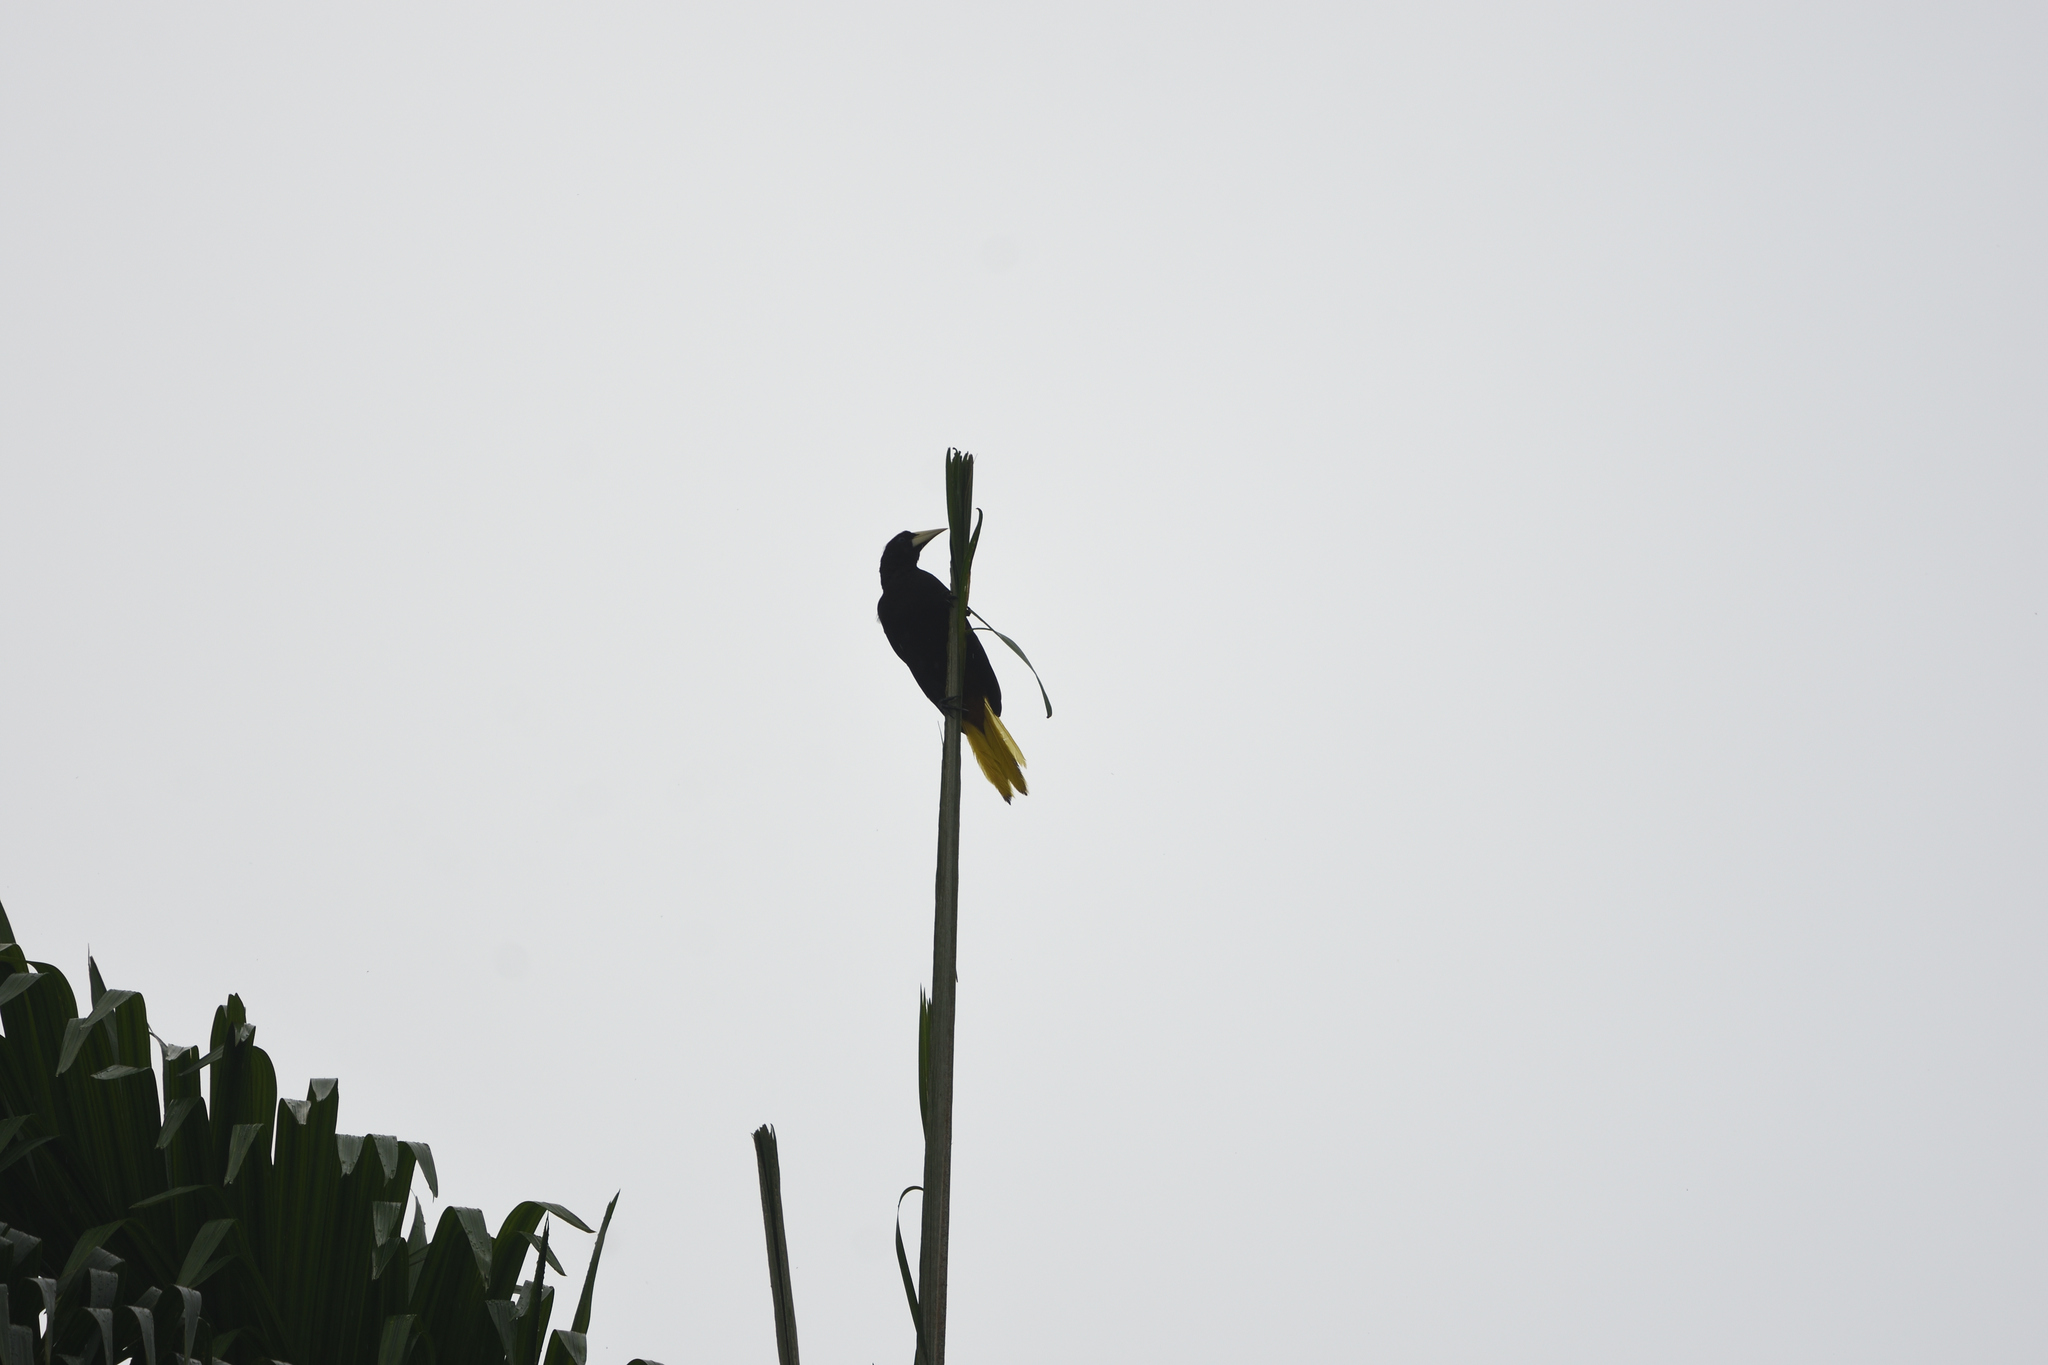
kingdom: Animalia
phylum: Chordata
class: Aves
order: Passeriformes
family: Icteridae
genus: Psarocolius
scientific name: Psarocolius decumanus
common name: Crested oropendola
